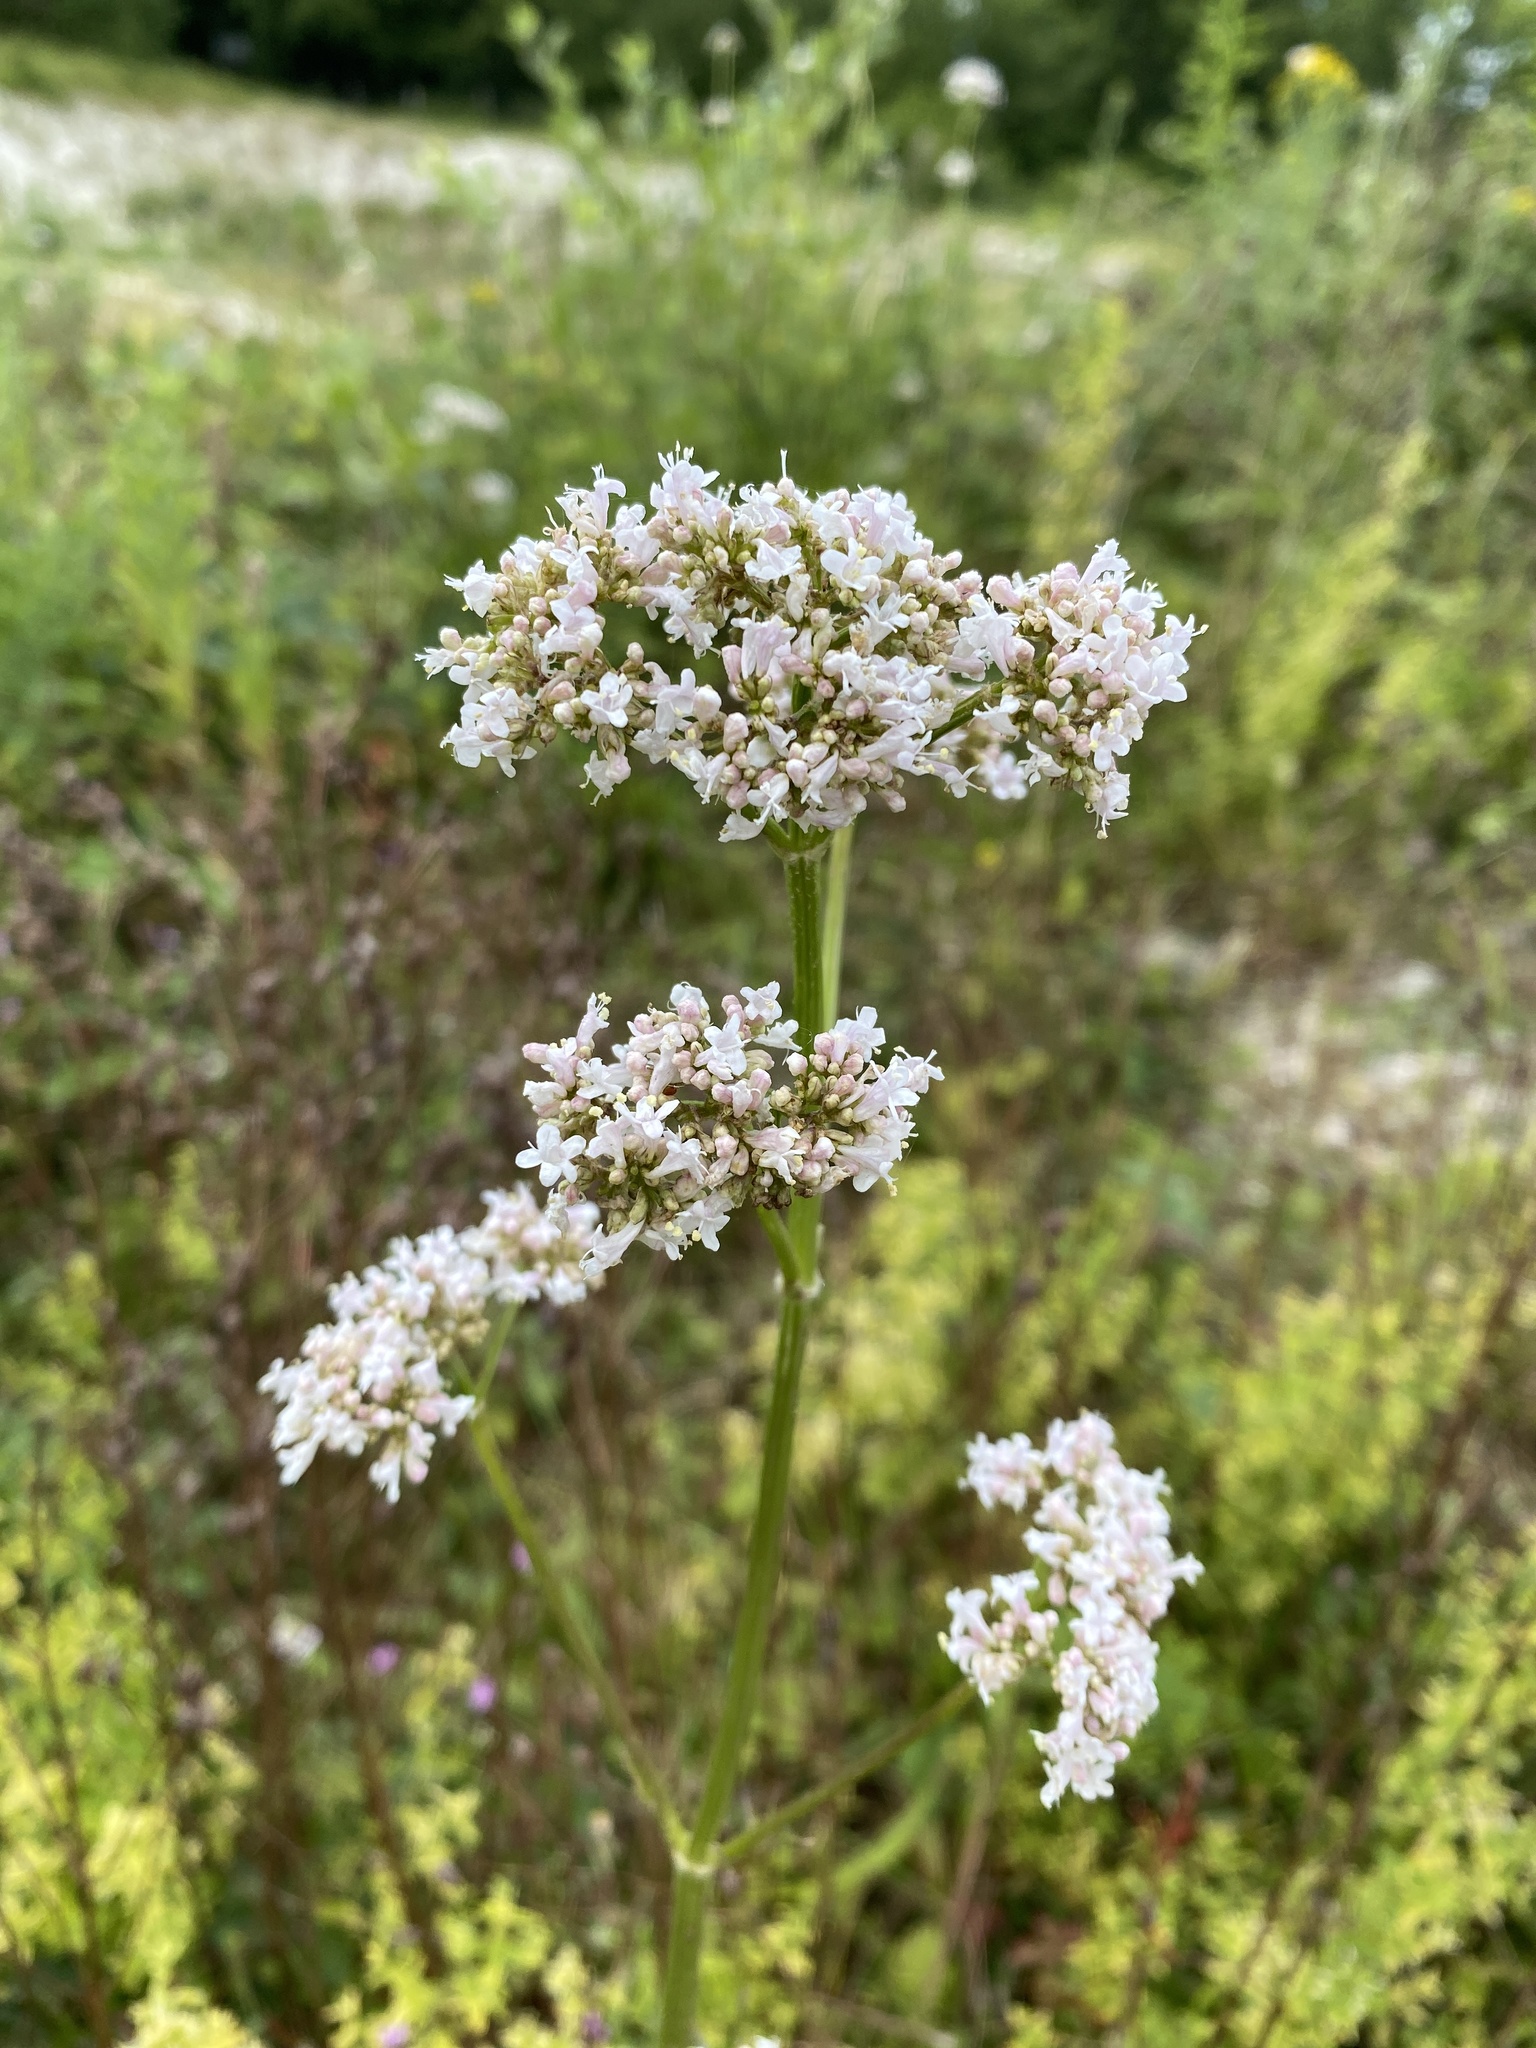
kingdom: Plantae
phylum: Tracheophyta
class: Magnoliopsida
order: Dipsacales
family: Caprifoliaceae
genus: Valeriana
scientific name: Valeriana officinalis
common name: Common valerian
